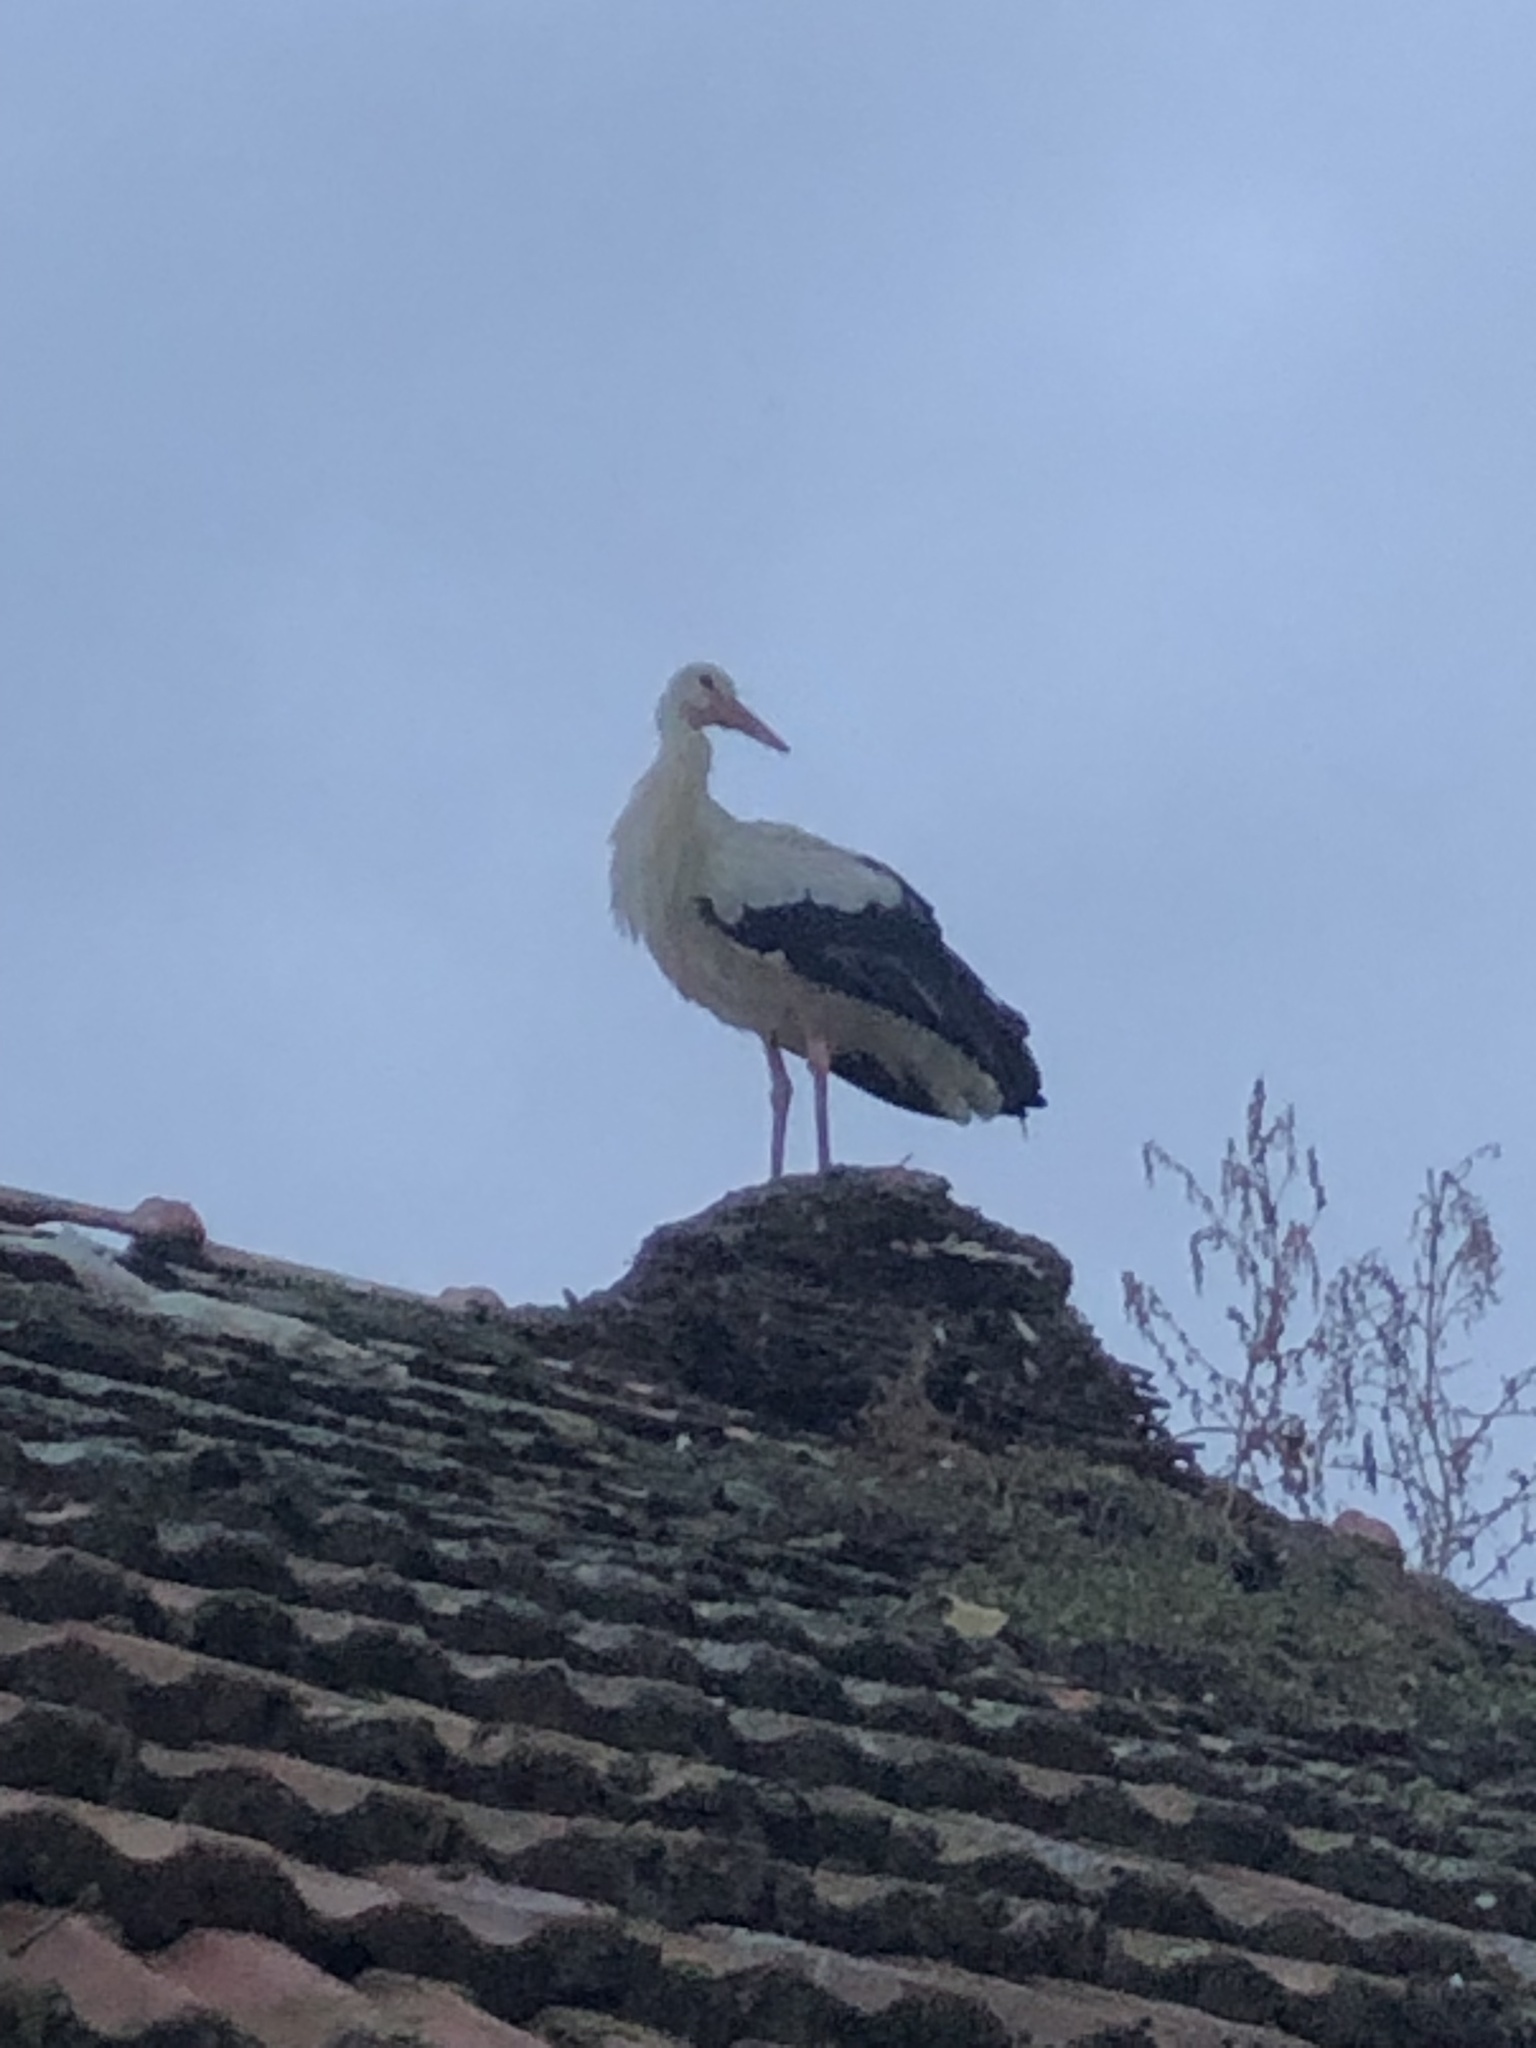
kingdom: Animalia
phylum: Chordata
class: Aves
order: Ciconiiformes
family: Ciconiidae
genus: Ciconia
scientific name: Ciconia ciconia
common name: White stork
